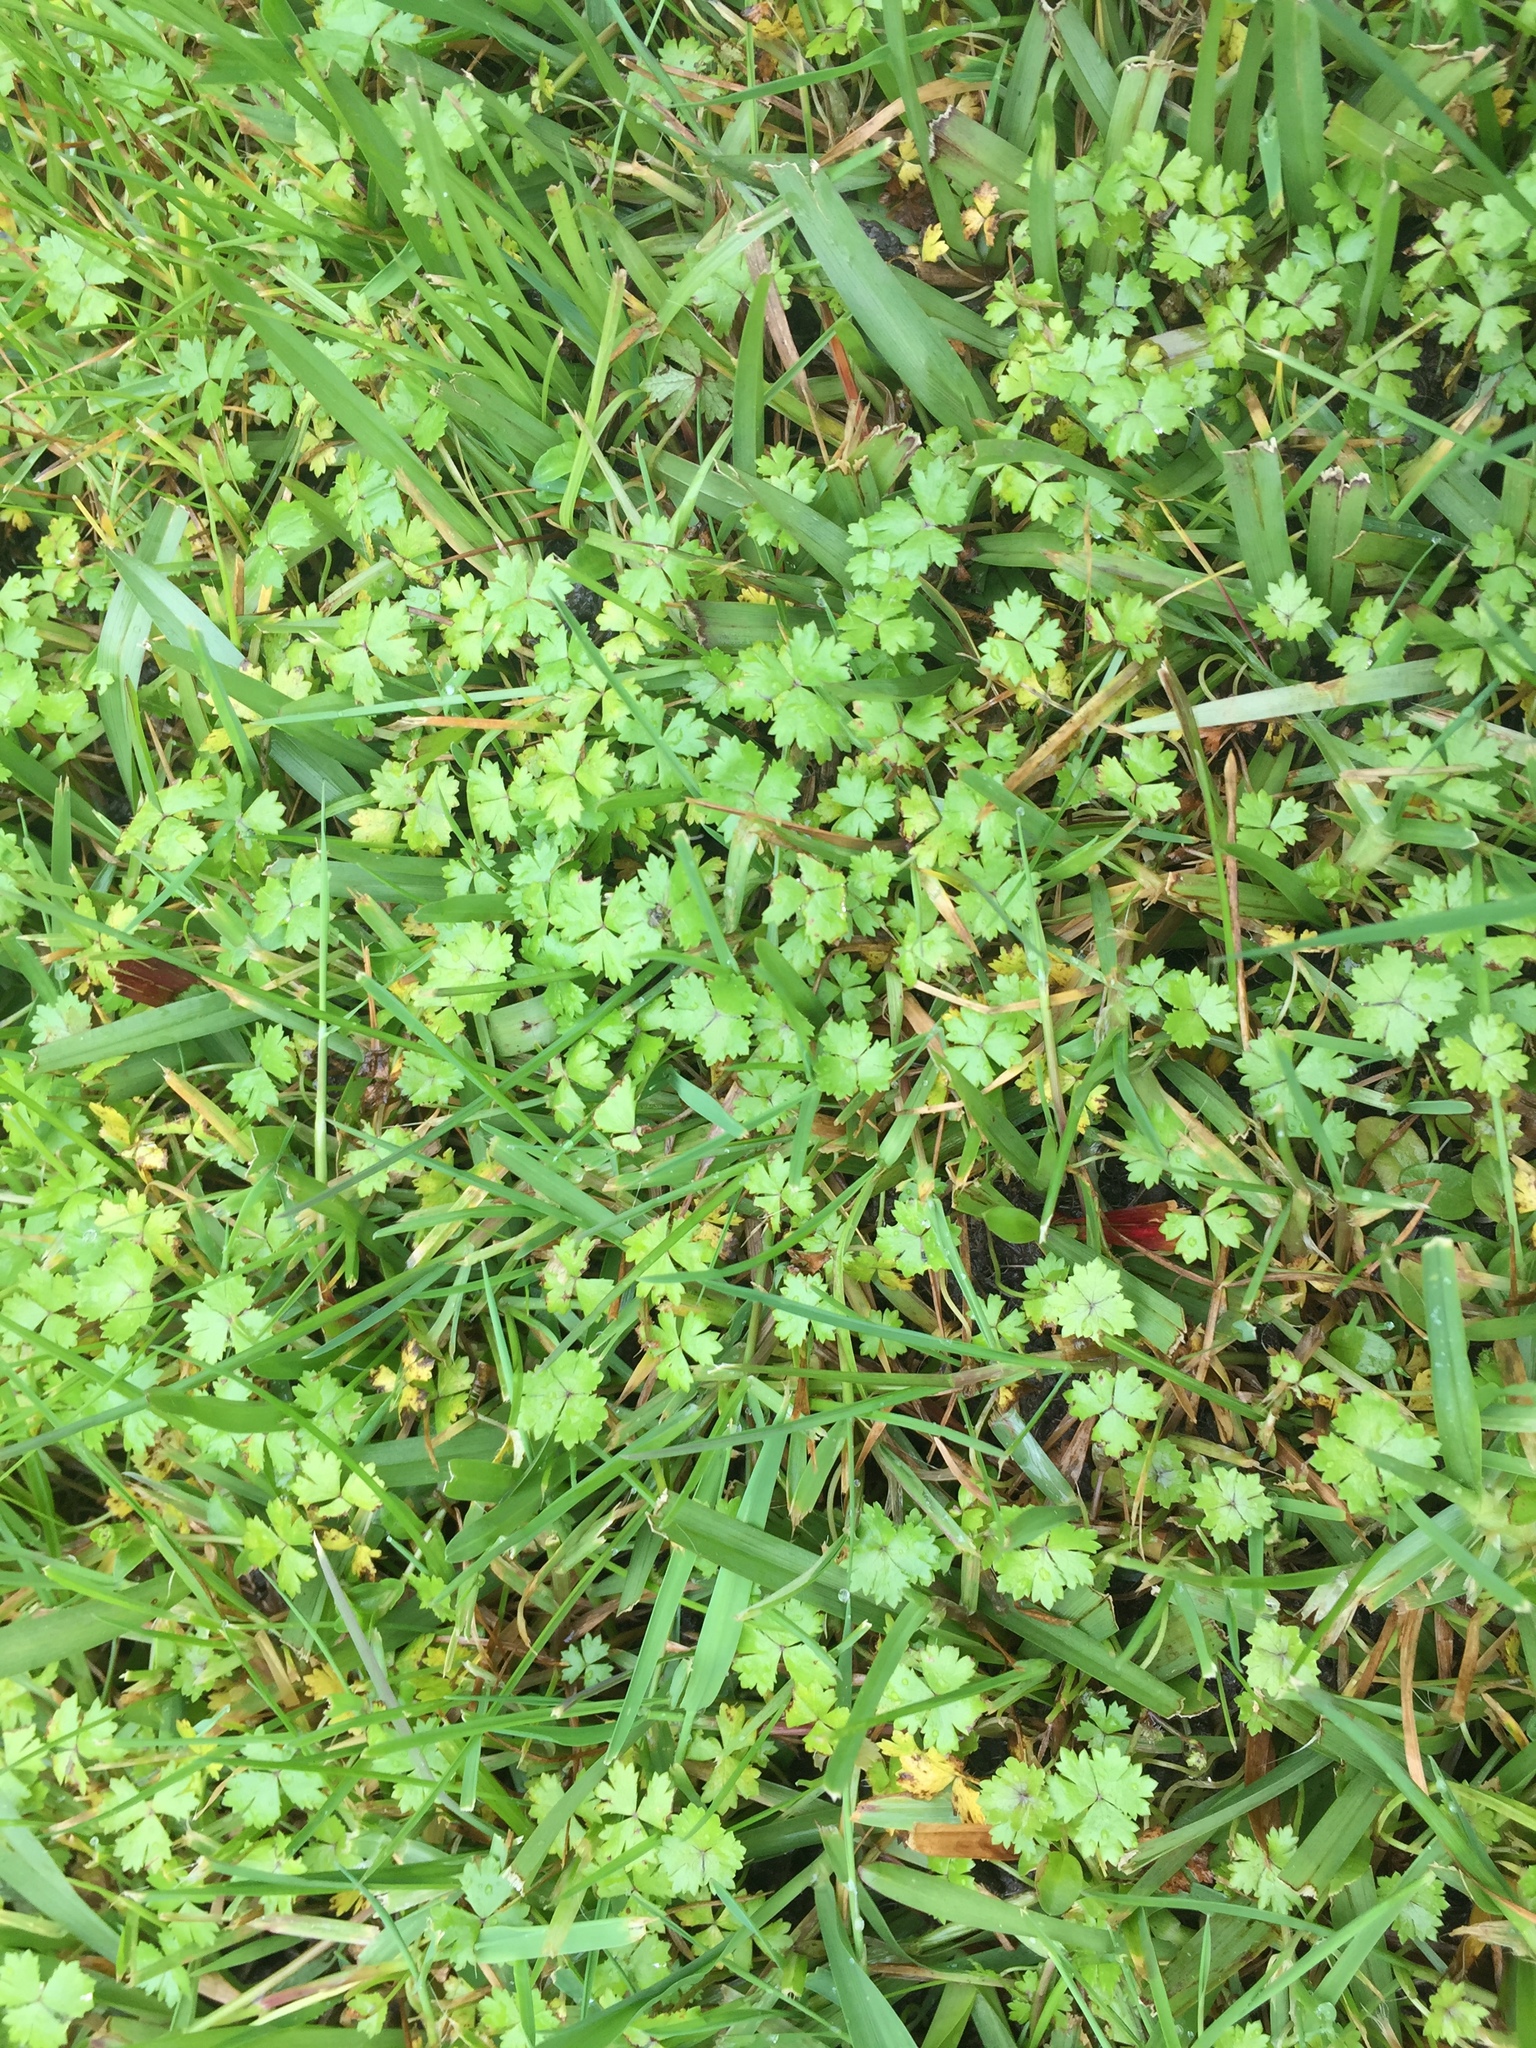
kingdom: Plantae
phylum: Tracheophyta
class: Magnoliopsida
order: Apiales
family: Araliaceae
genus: Hydrocotyle
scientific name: Hydrocotyle tripartita
